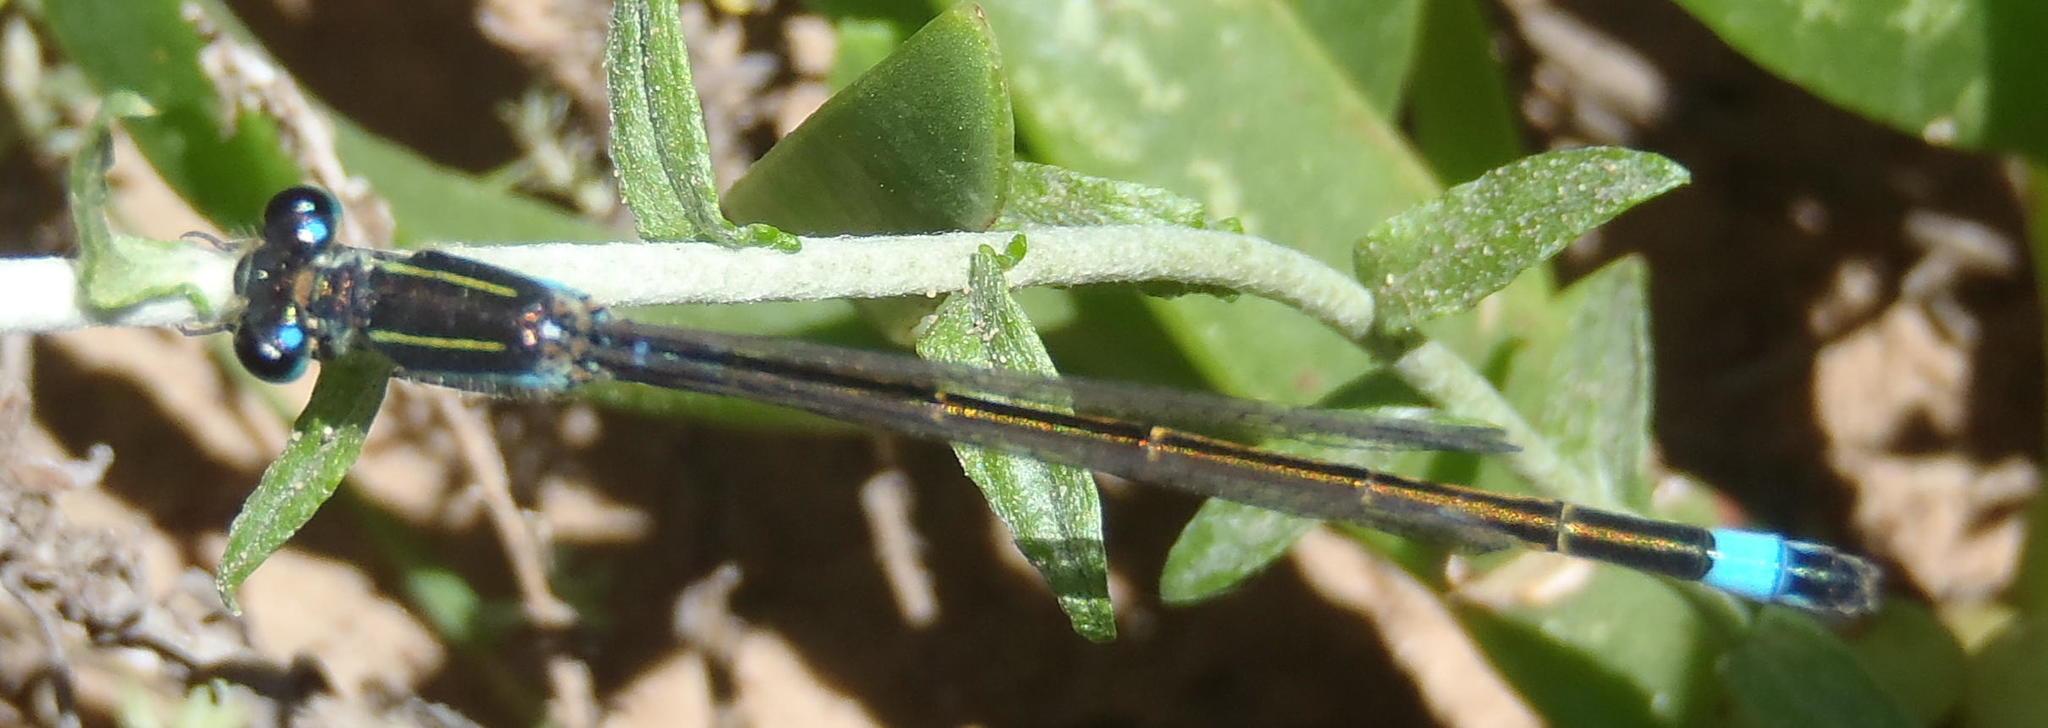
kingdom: Animalia
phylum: Arthropoda
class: Insecta
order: Odonata
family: Coenagrionidae
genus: Ischnura
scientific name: Ischnura senegalensis
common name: Tropical bluetail
